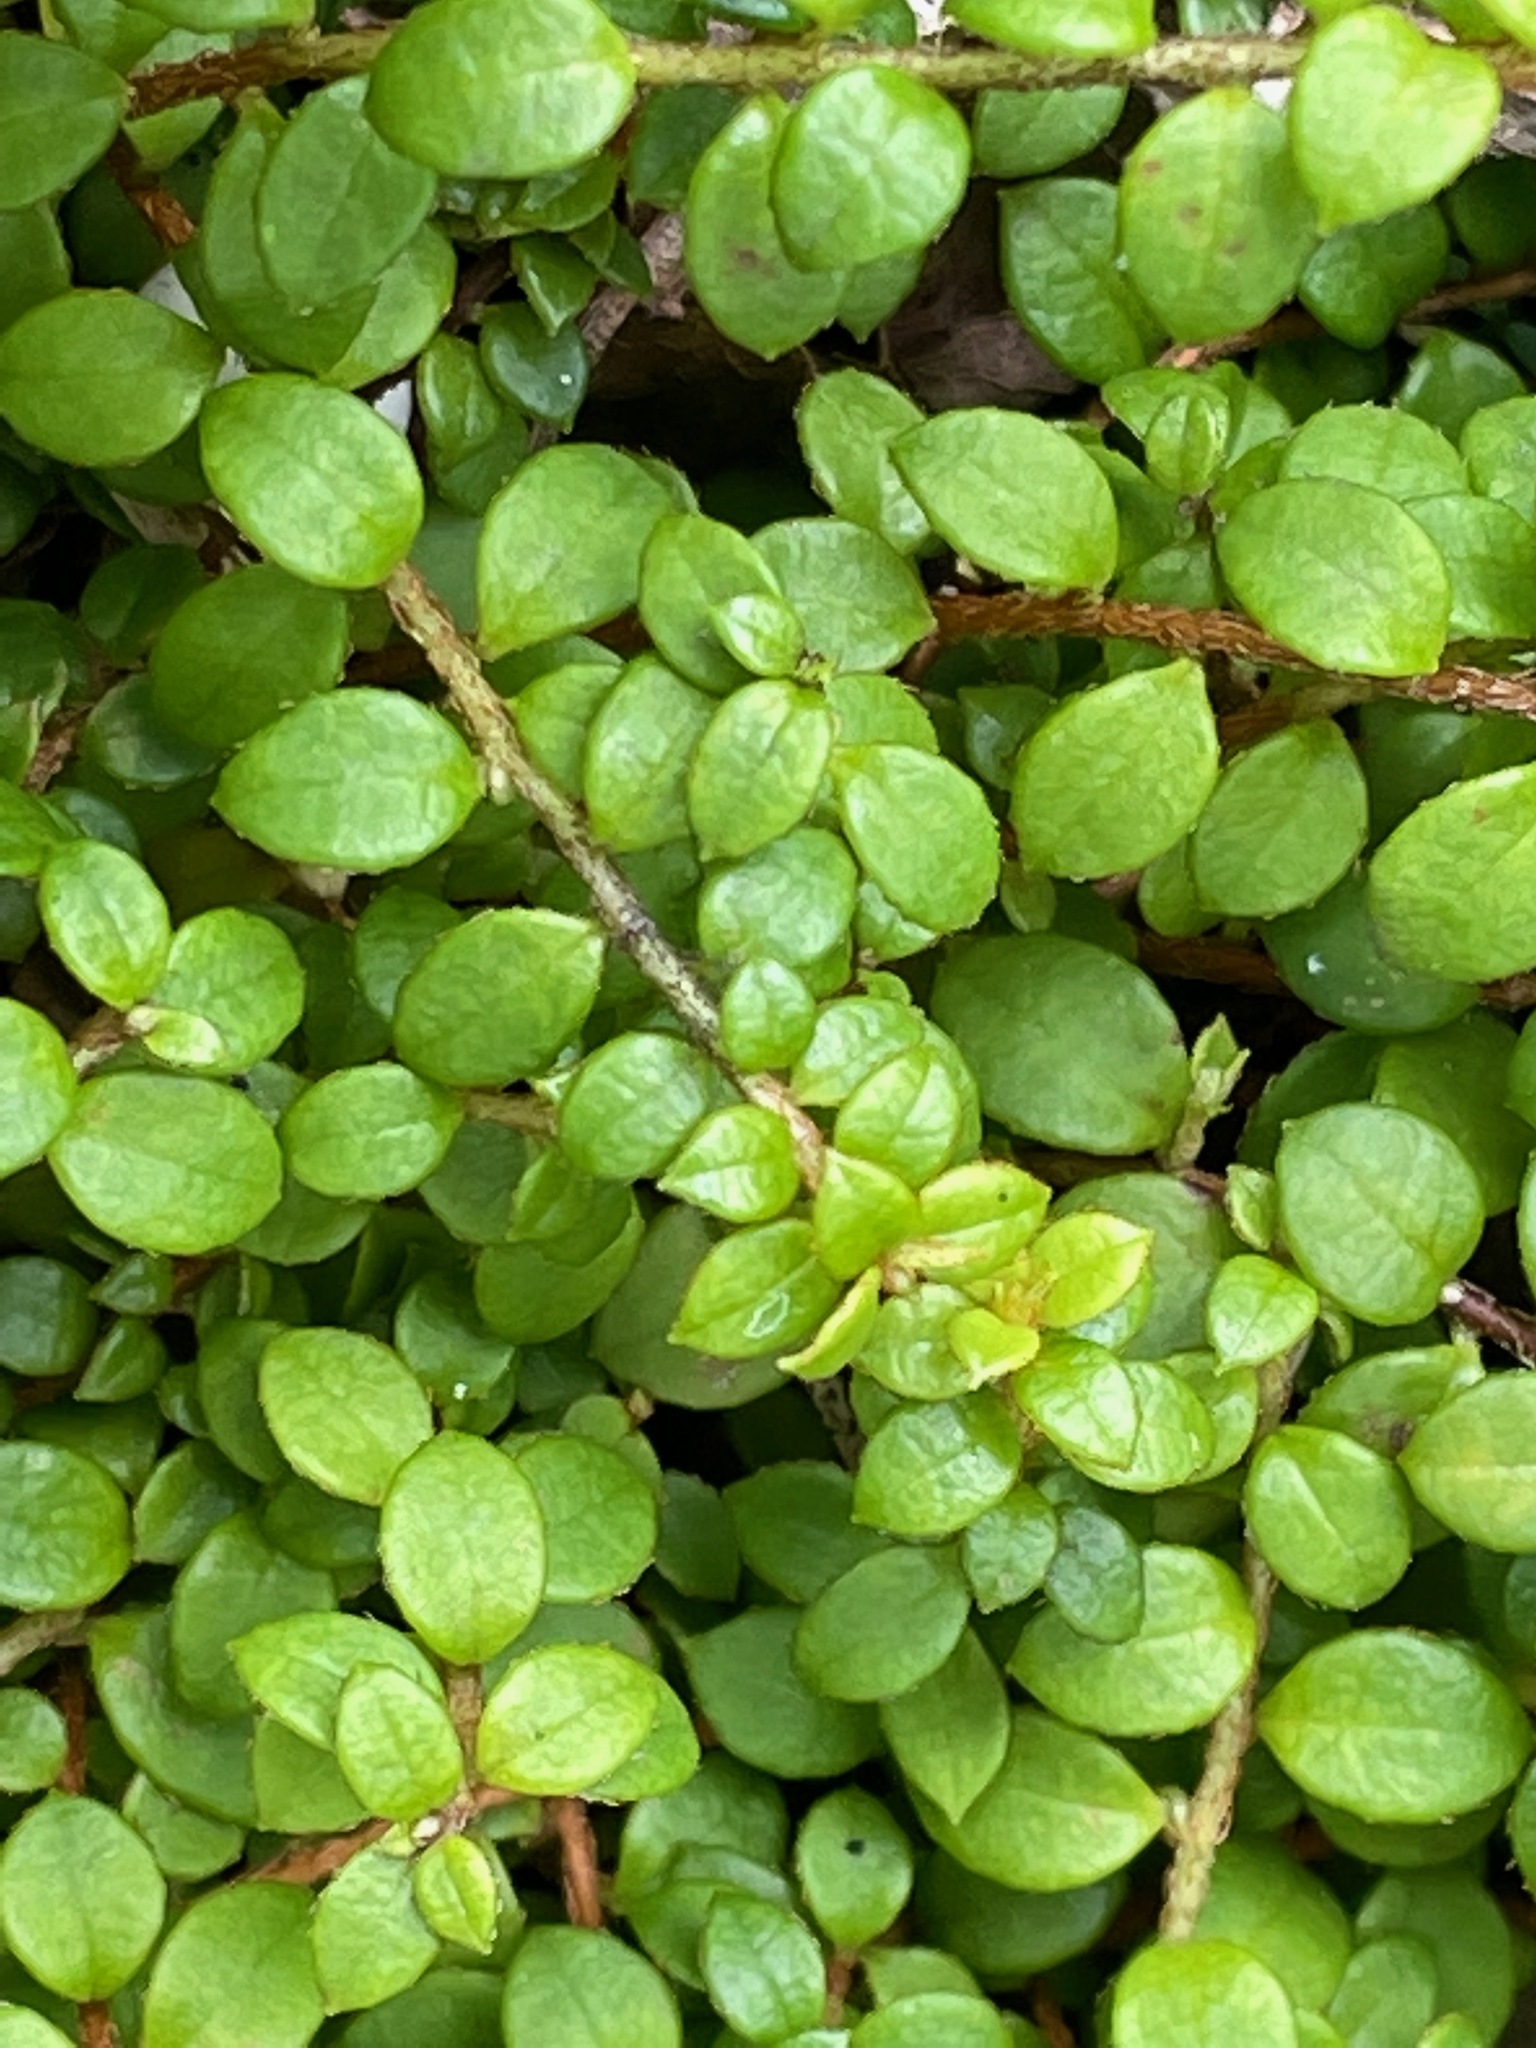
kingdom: Plantae
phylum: Tracheophyta
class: Magnoliopsida
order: Ericales
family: Ericaceae
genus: Gaultheria
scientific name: Gaultheria hispidula
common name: Cancer wintergreen
